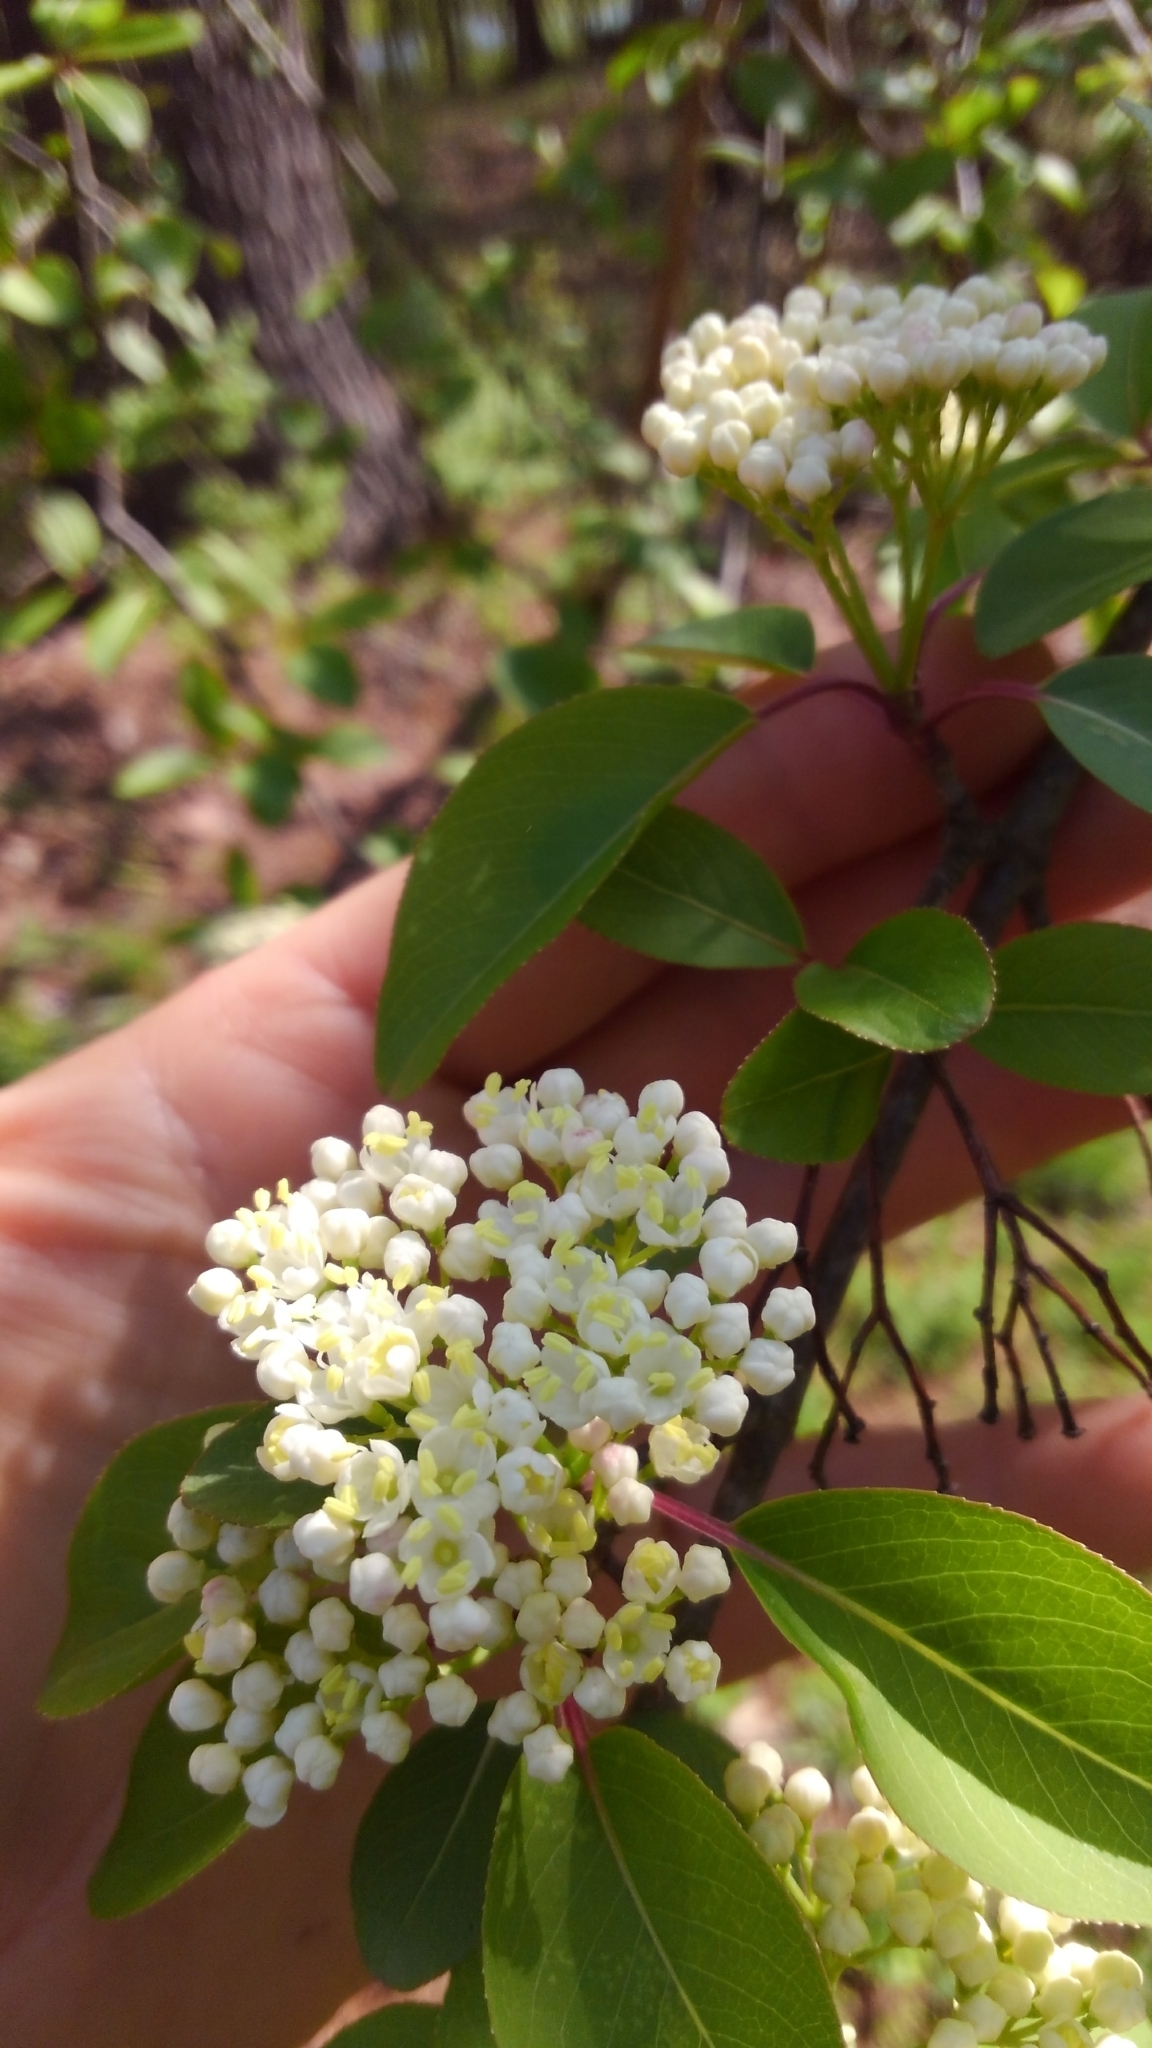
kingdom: Plantae
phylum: Tracheophyta
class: Magnoliopsida
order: Dipsacales
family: Viburnaceae
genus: Viburnum
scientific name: Viburnum prunifolium
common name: Black haw
